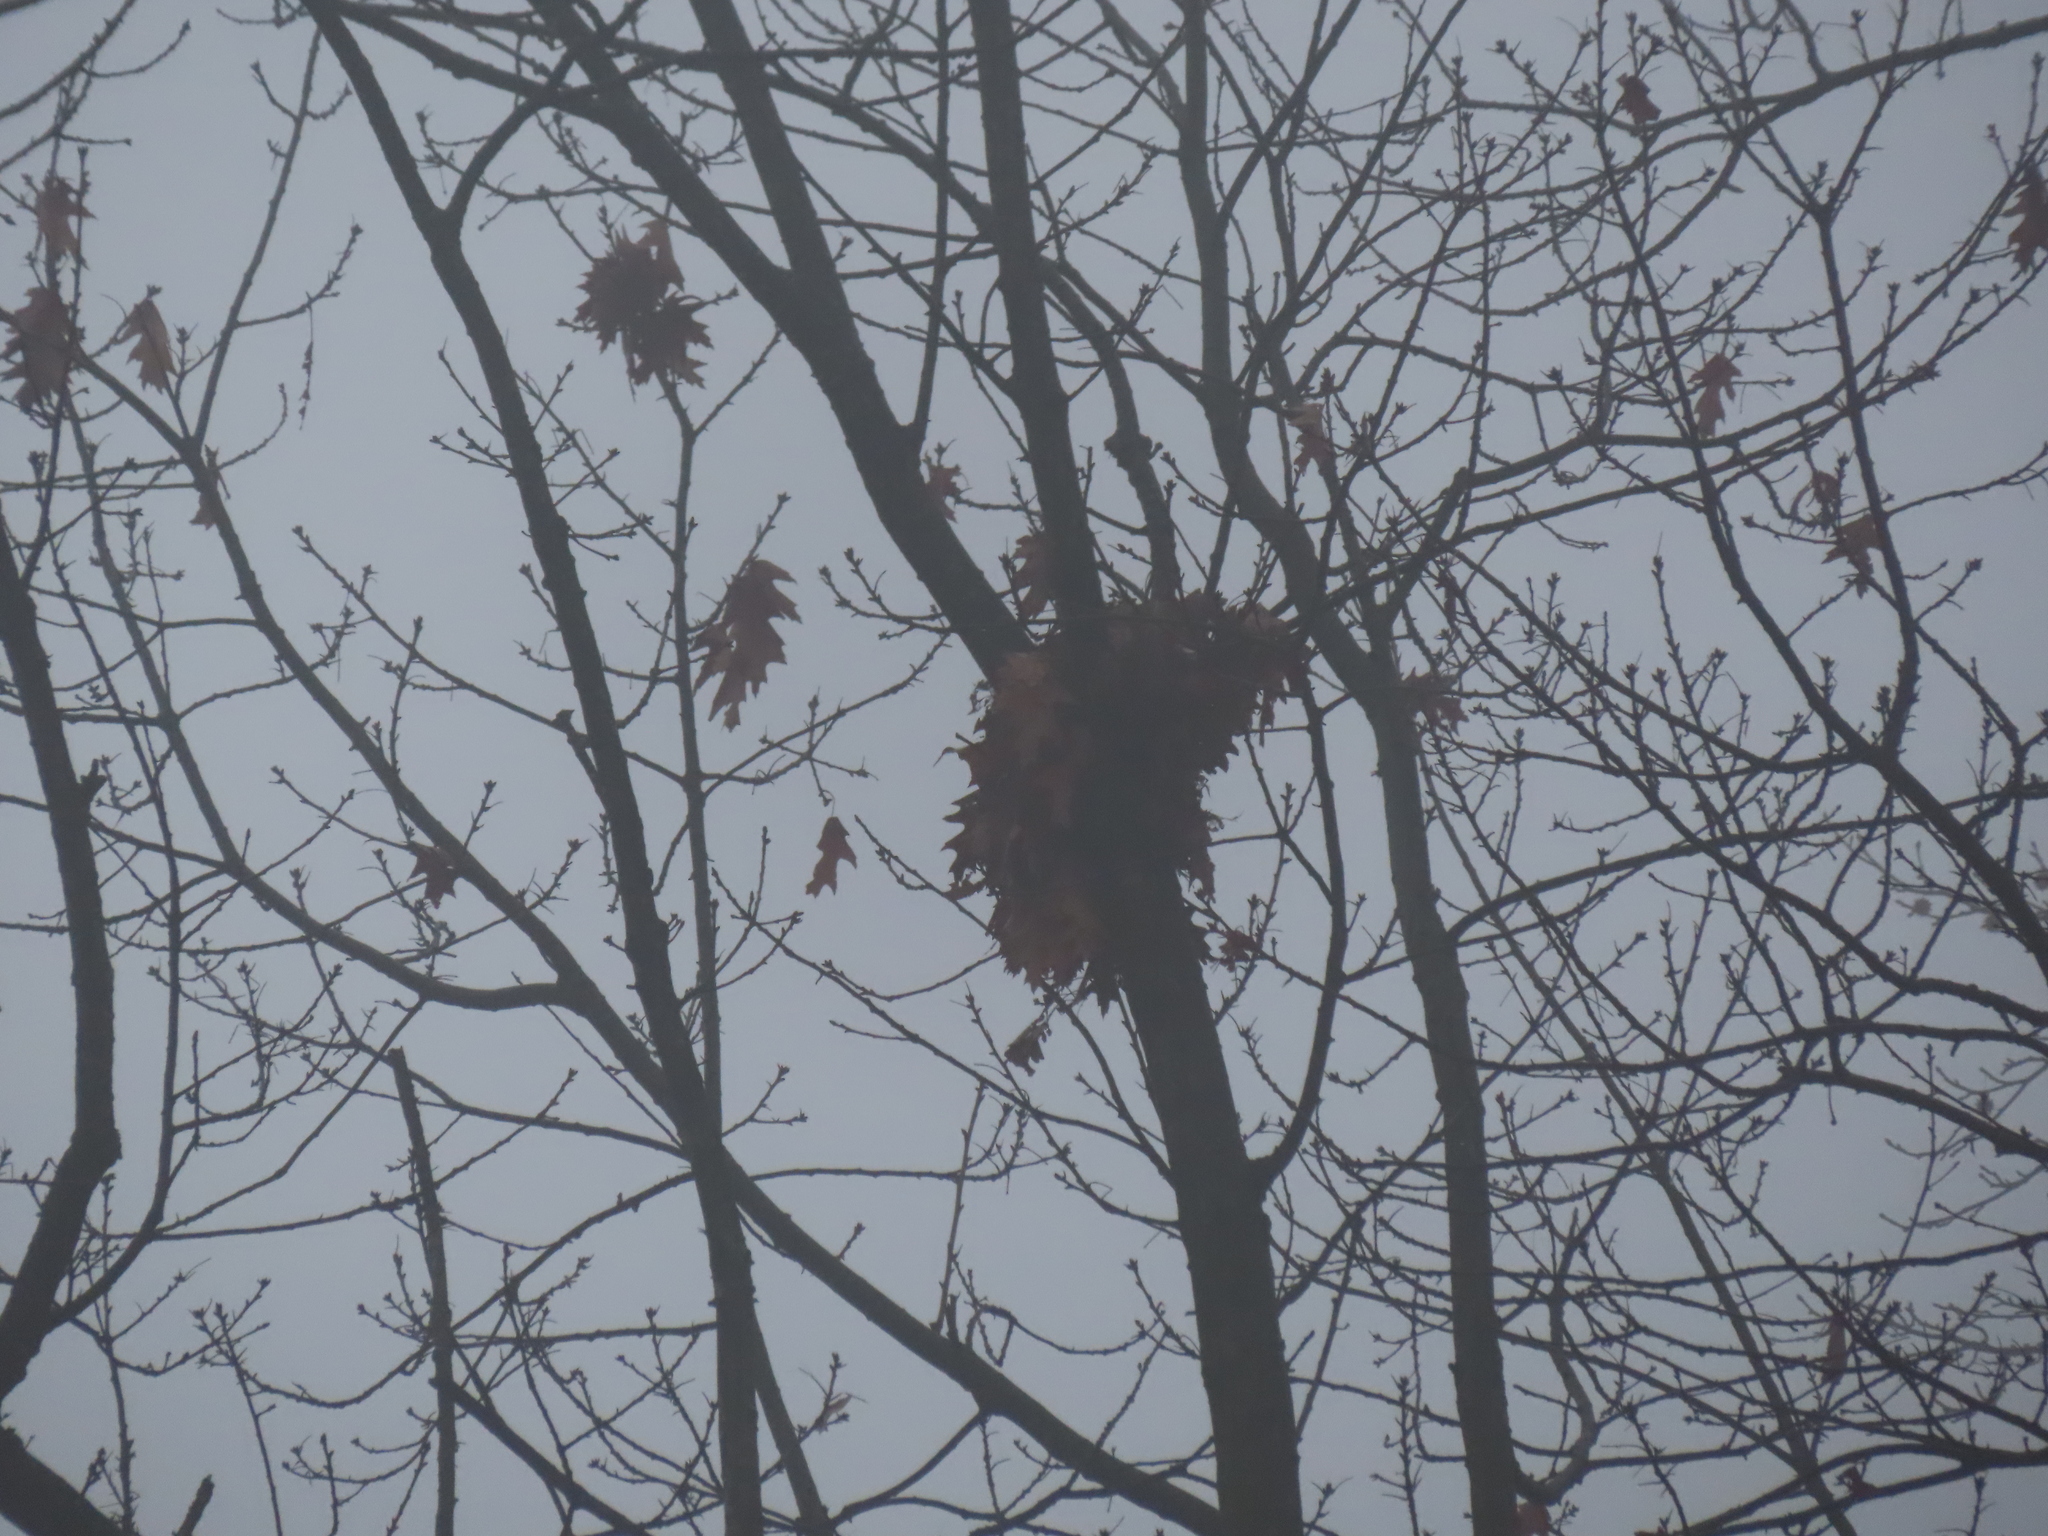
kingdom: Animalia
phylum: Chordata
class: Mammalia
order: Rodentia
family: Sciuridae
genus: Sciurus
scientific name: Sciurus carolinensis
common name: Eastern gray squirrel
